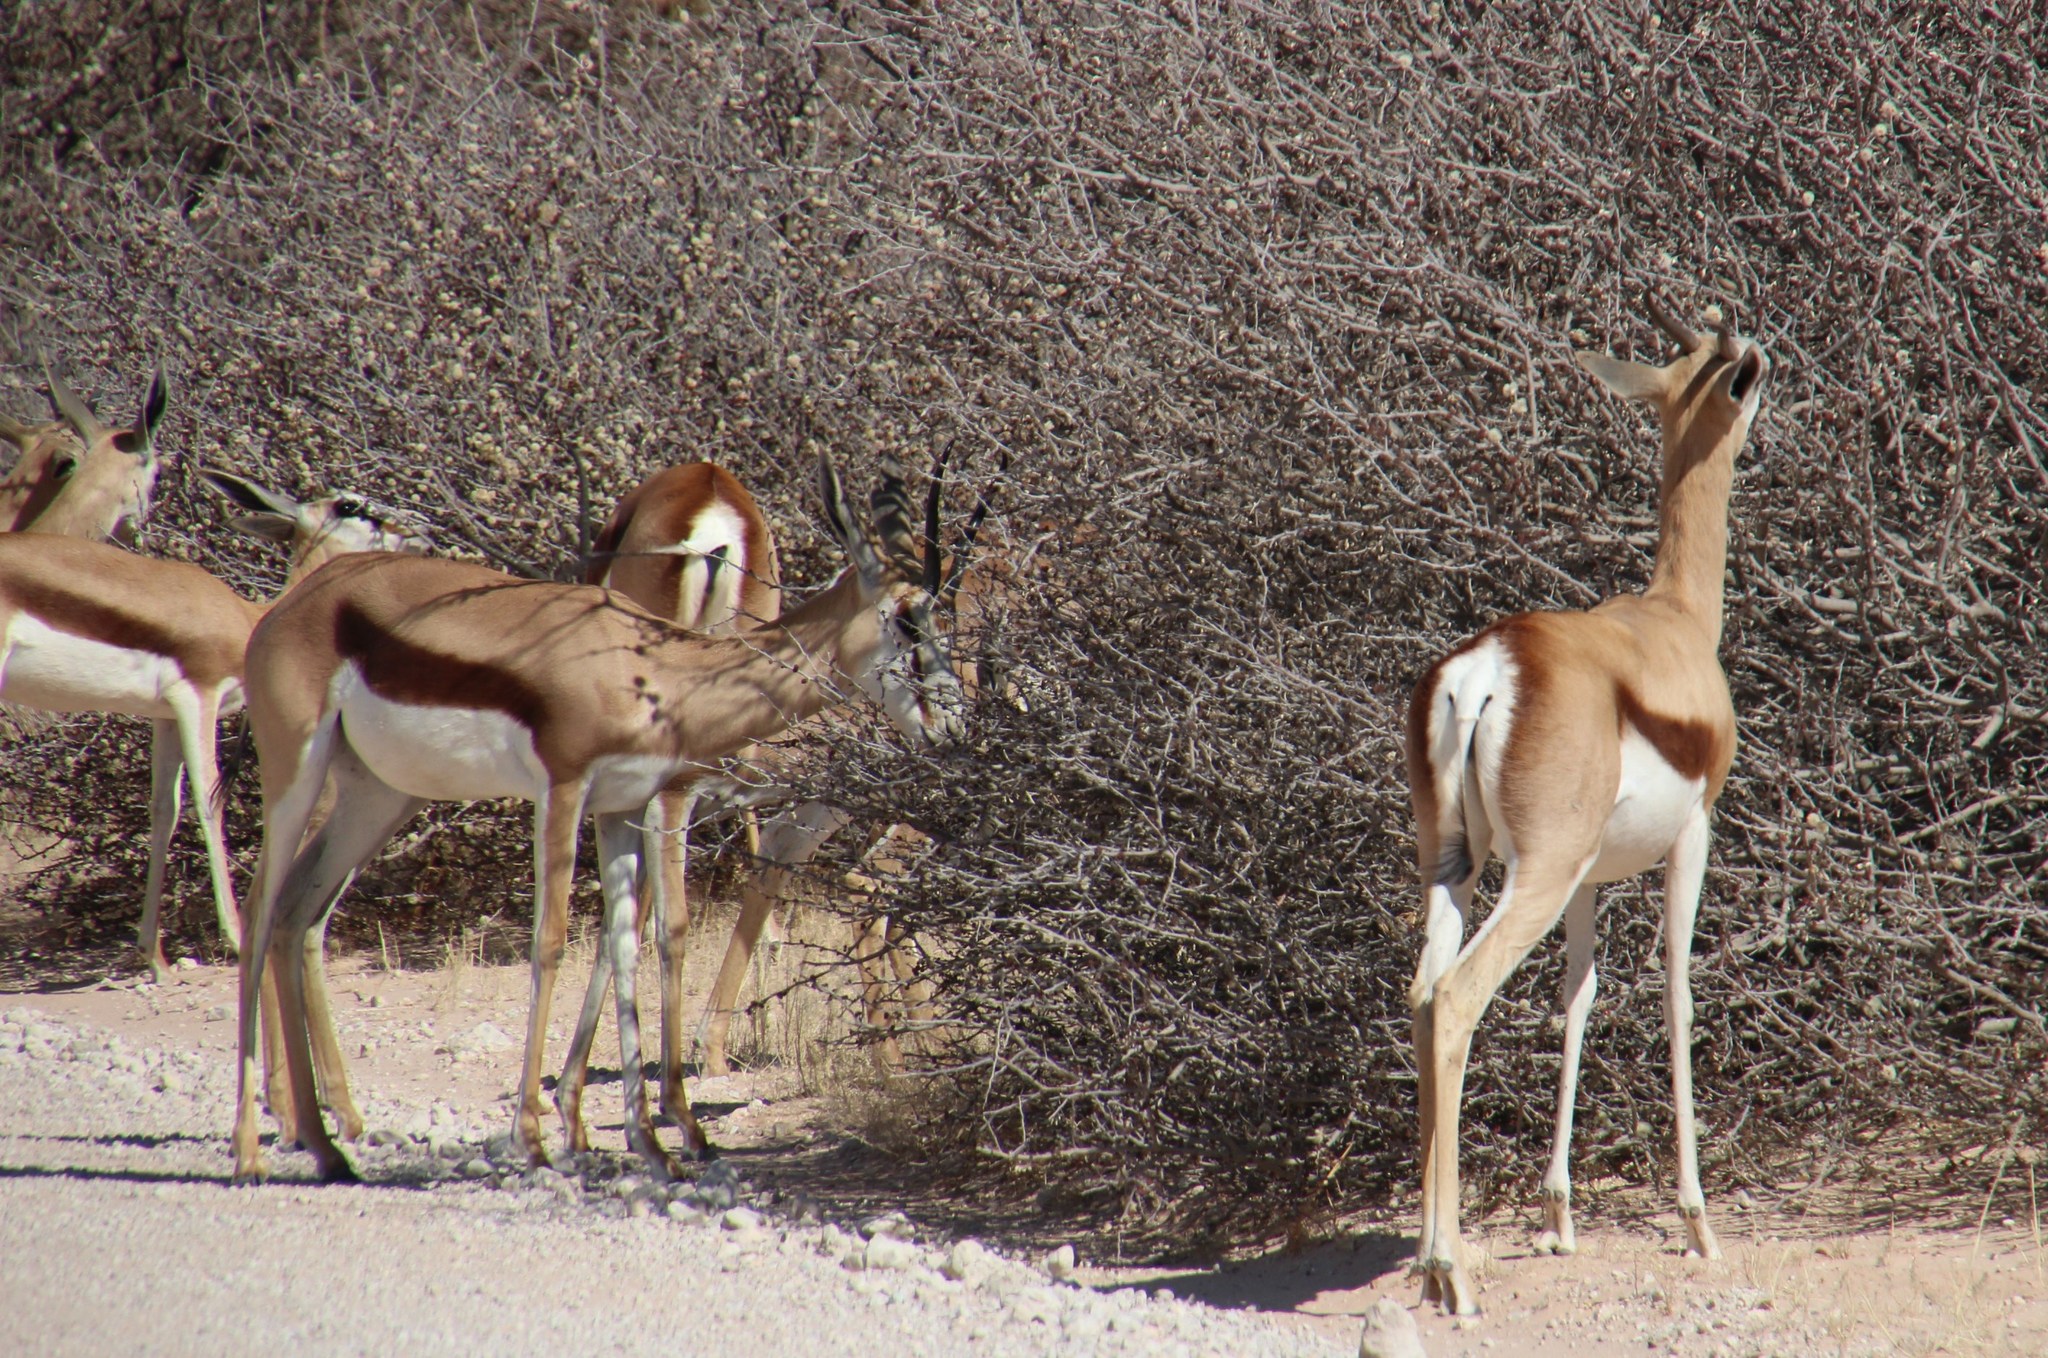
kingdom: Animalia
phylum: Chordata
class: Mammalia
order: Artiodactyla
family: Bovidae
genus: Antidorcas
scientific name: Antidorcas marsupialis
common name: Springbok
